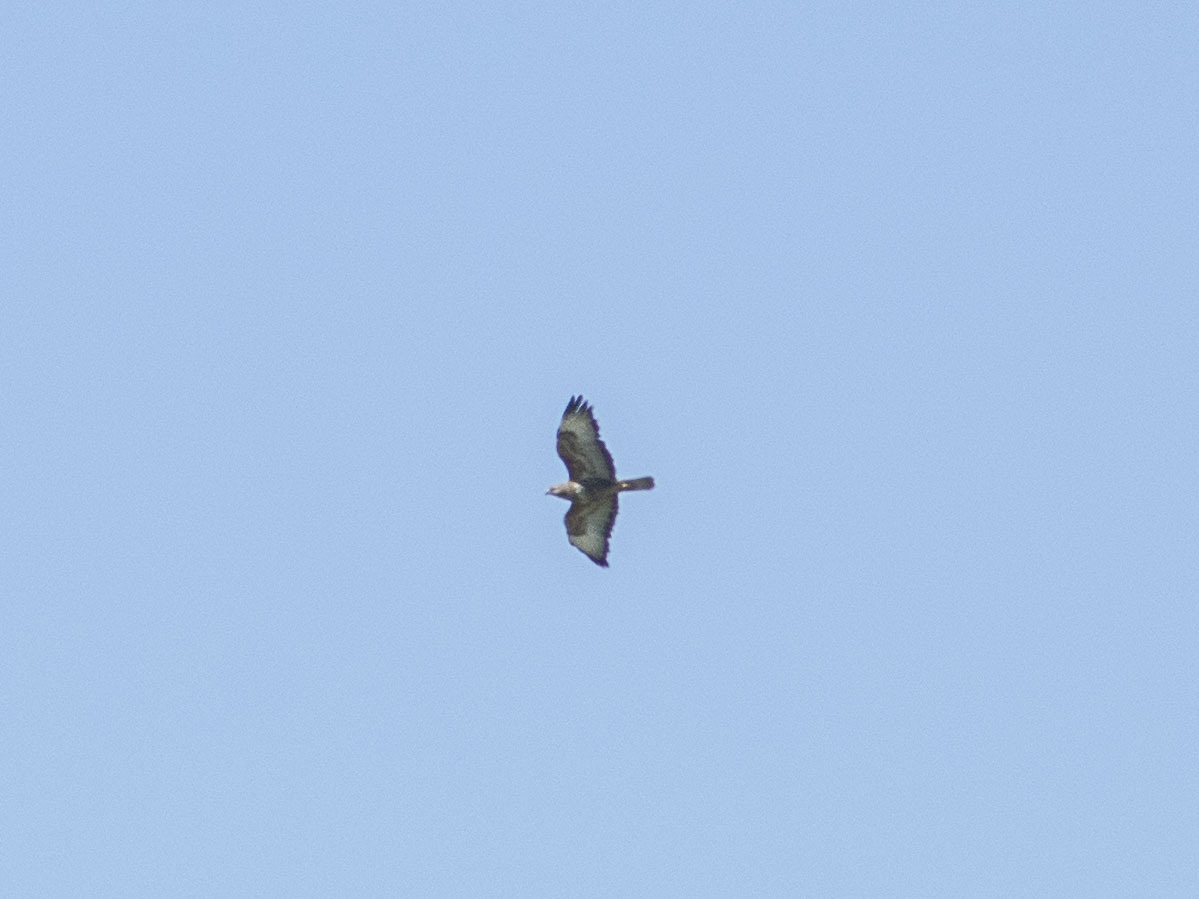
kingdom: Animalia
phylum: Chordata
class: Aves
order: Accipitriformes
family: Accipitridae
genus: Buteo
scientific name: Buteo buteo
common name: Common buzzard
